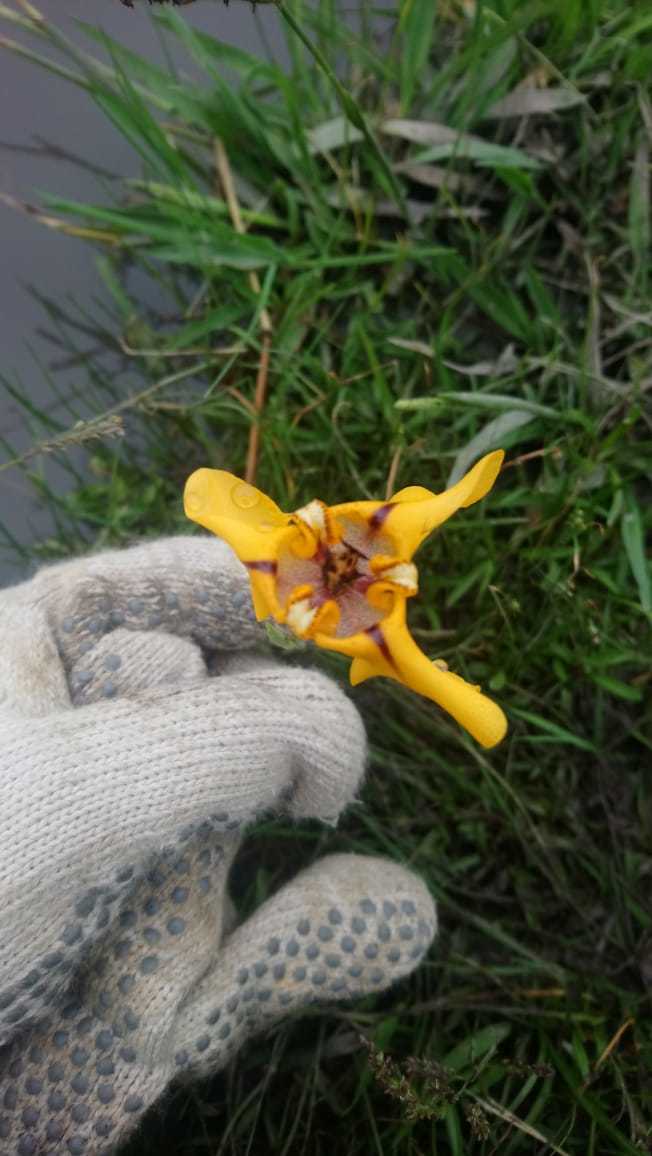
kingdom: Plantae
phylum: Tracheophyta
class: Liliopsida
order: Asparagales
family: Iridaceae
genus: Cypella
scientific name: Cypella herbertii
